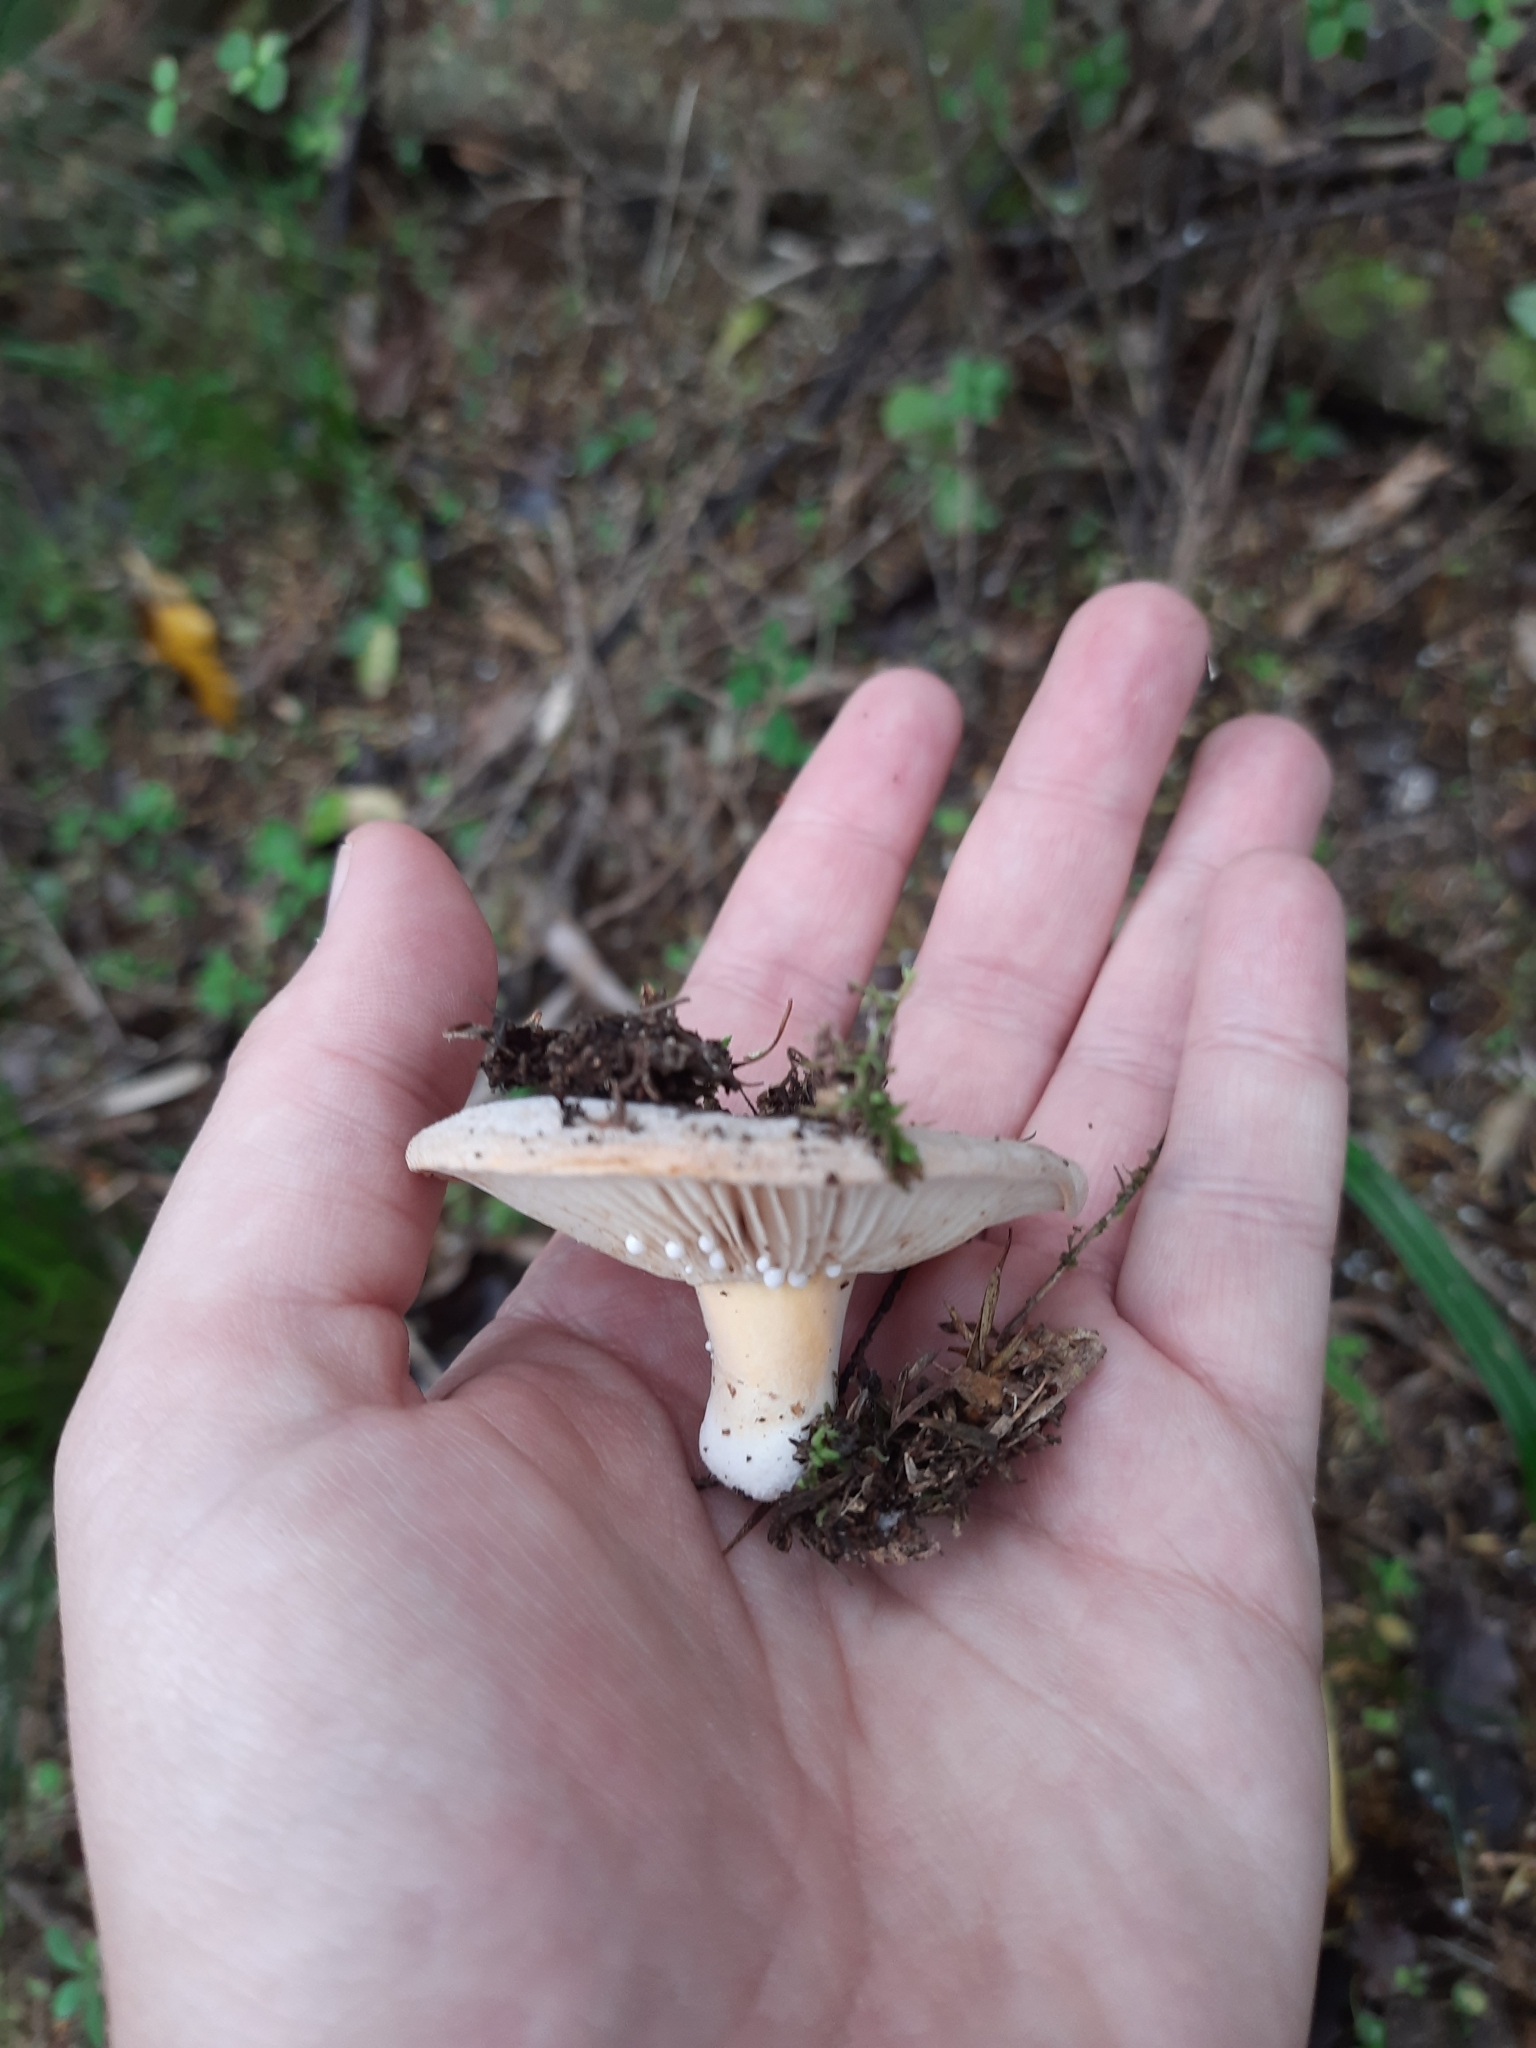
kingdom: Fungi
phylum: Basidiomycota
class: Agaricomycetes
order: Russulales
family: Russulaceae
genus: Lactifluus
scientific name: Lactifluus clarkeae
